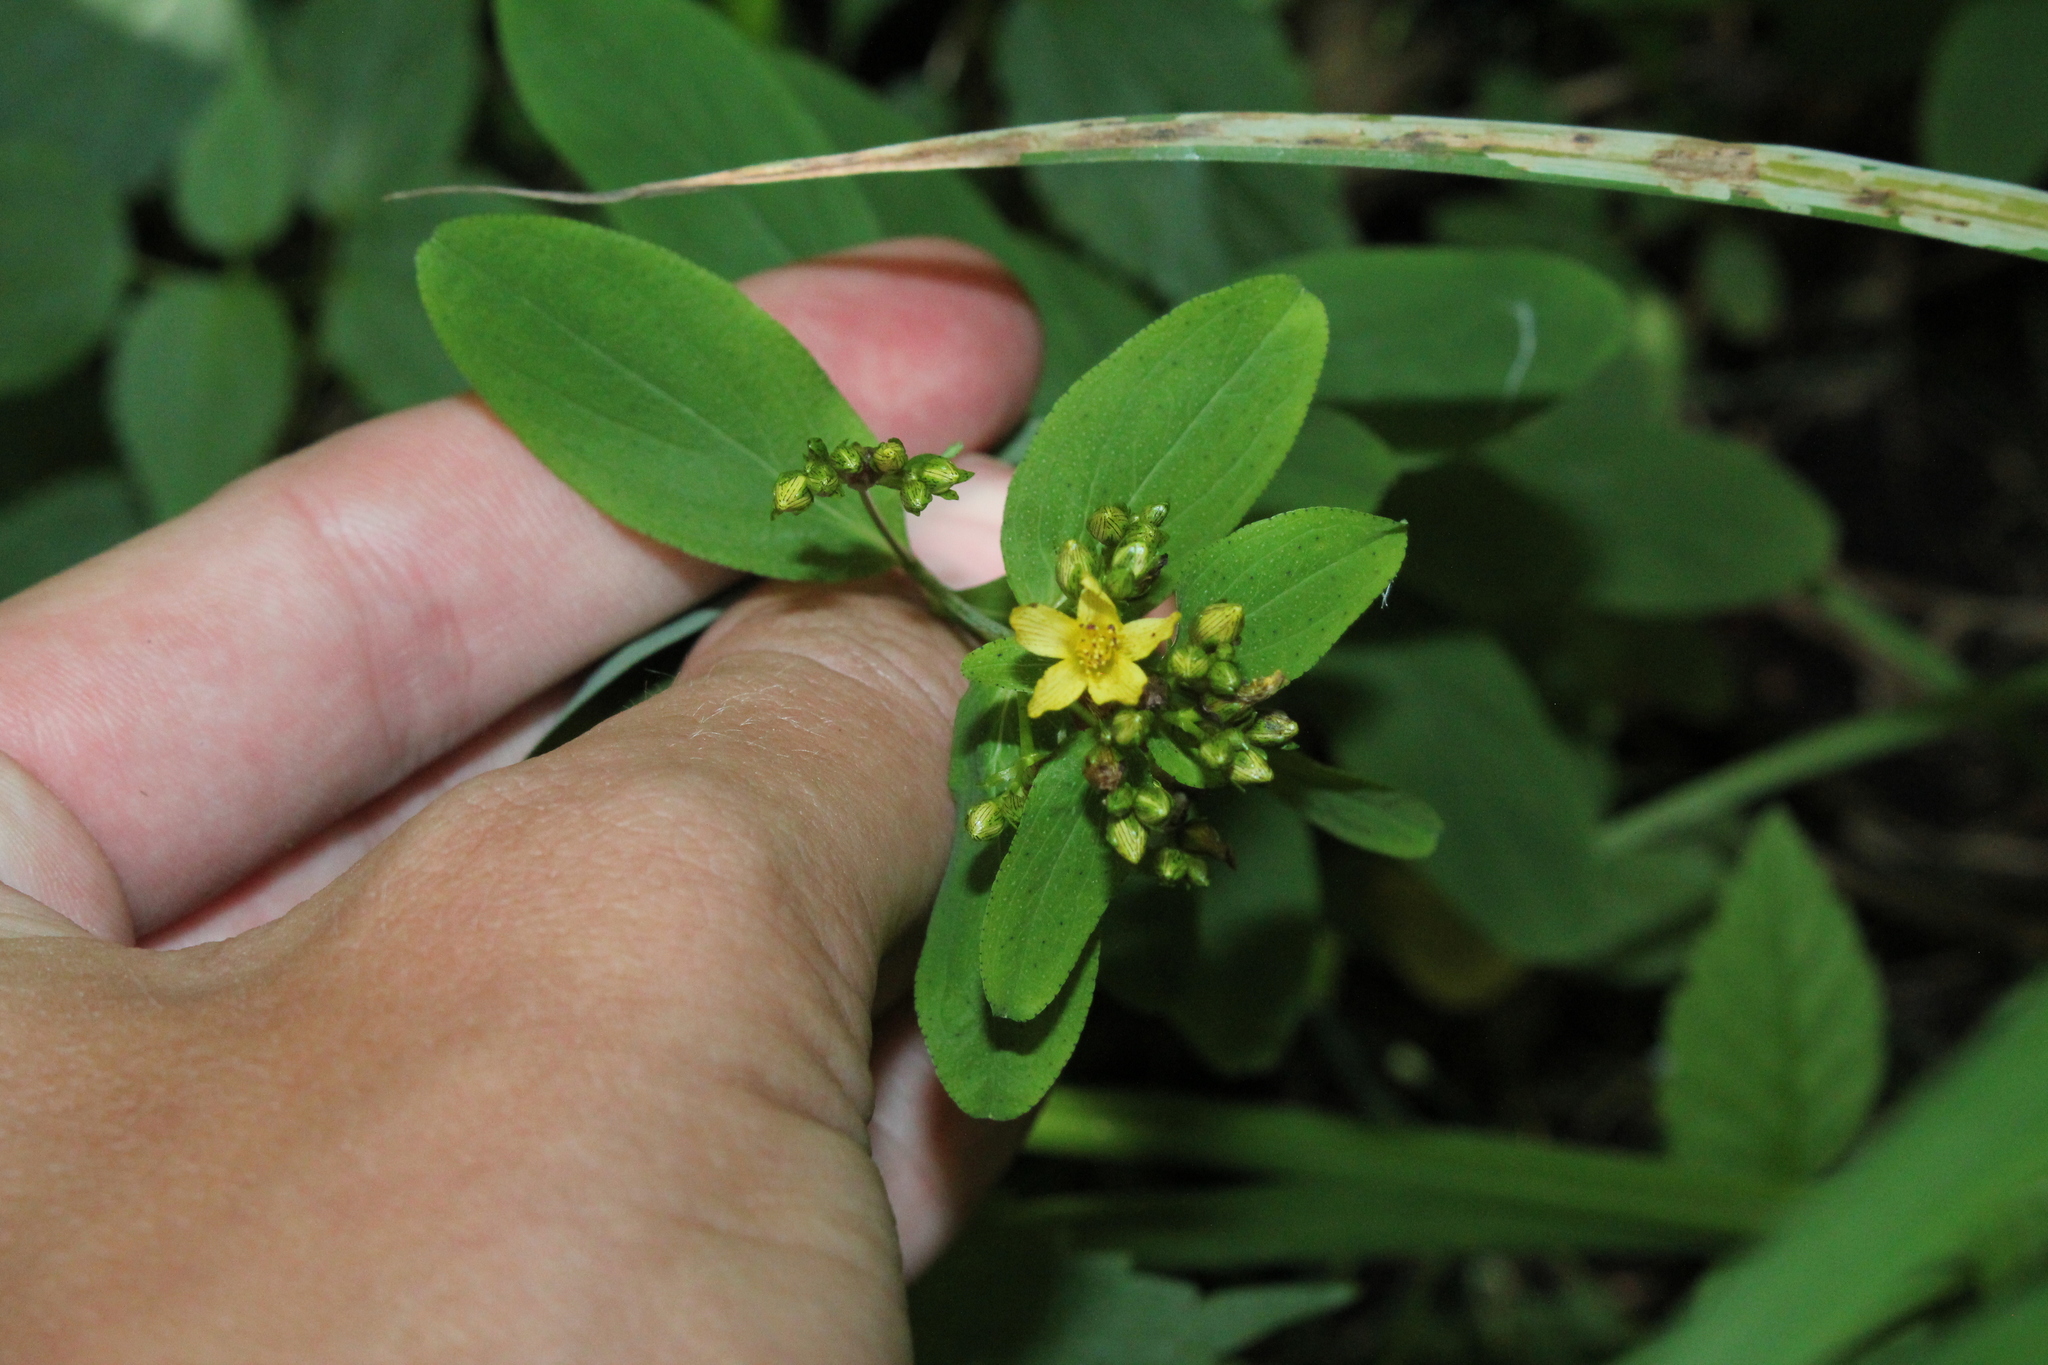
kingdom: Plantae
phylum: Tracheophyta
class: Magnoliopsida
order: Malpighiales
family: Hypericaceae
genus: Hypericum
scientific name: Hypericum punctatum
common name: Spotted st. john's-wort
